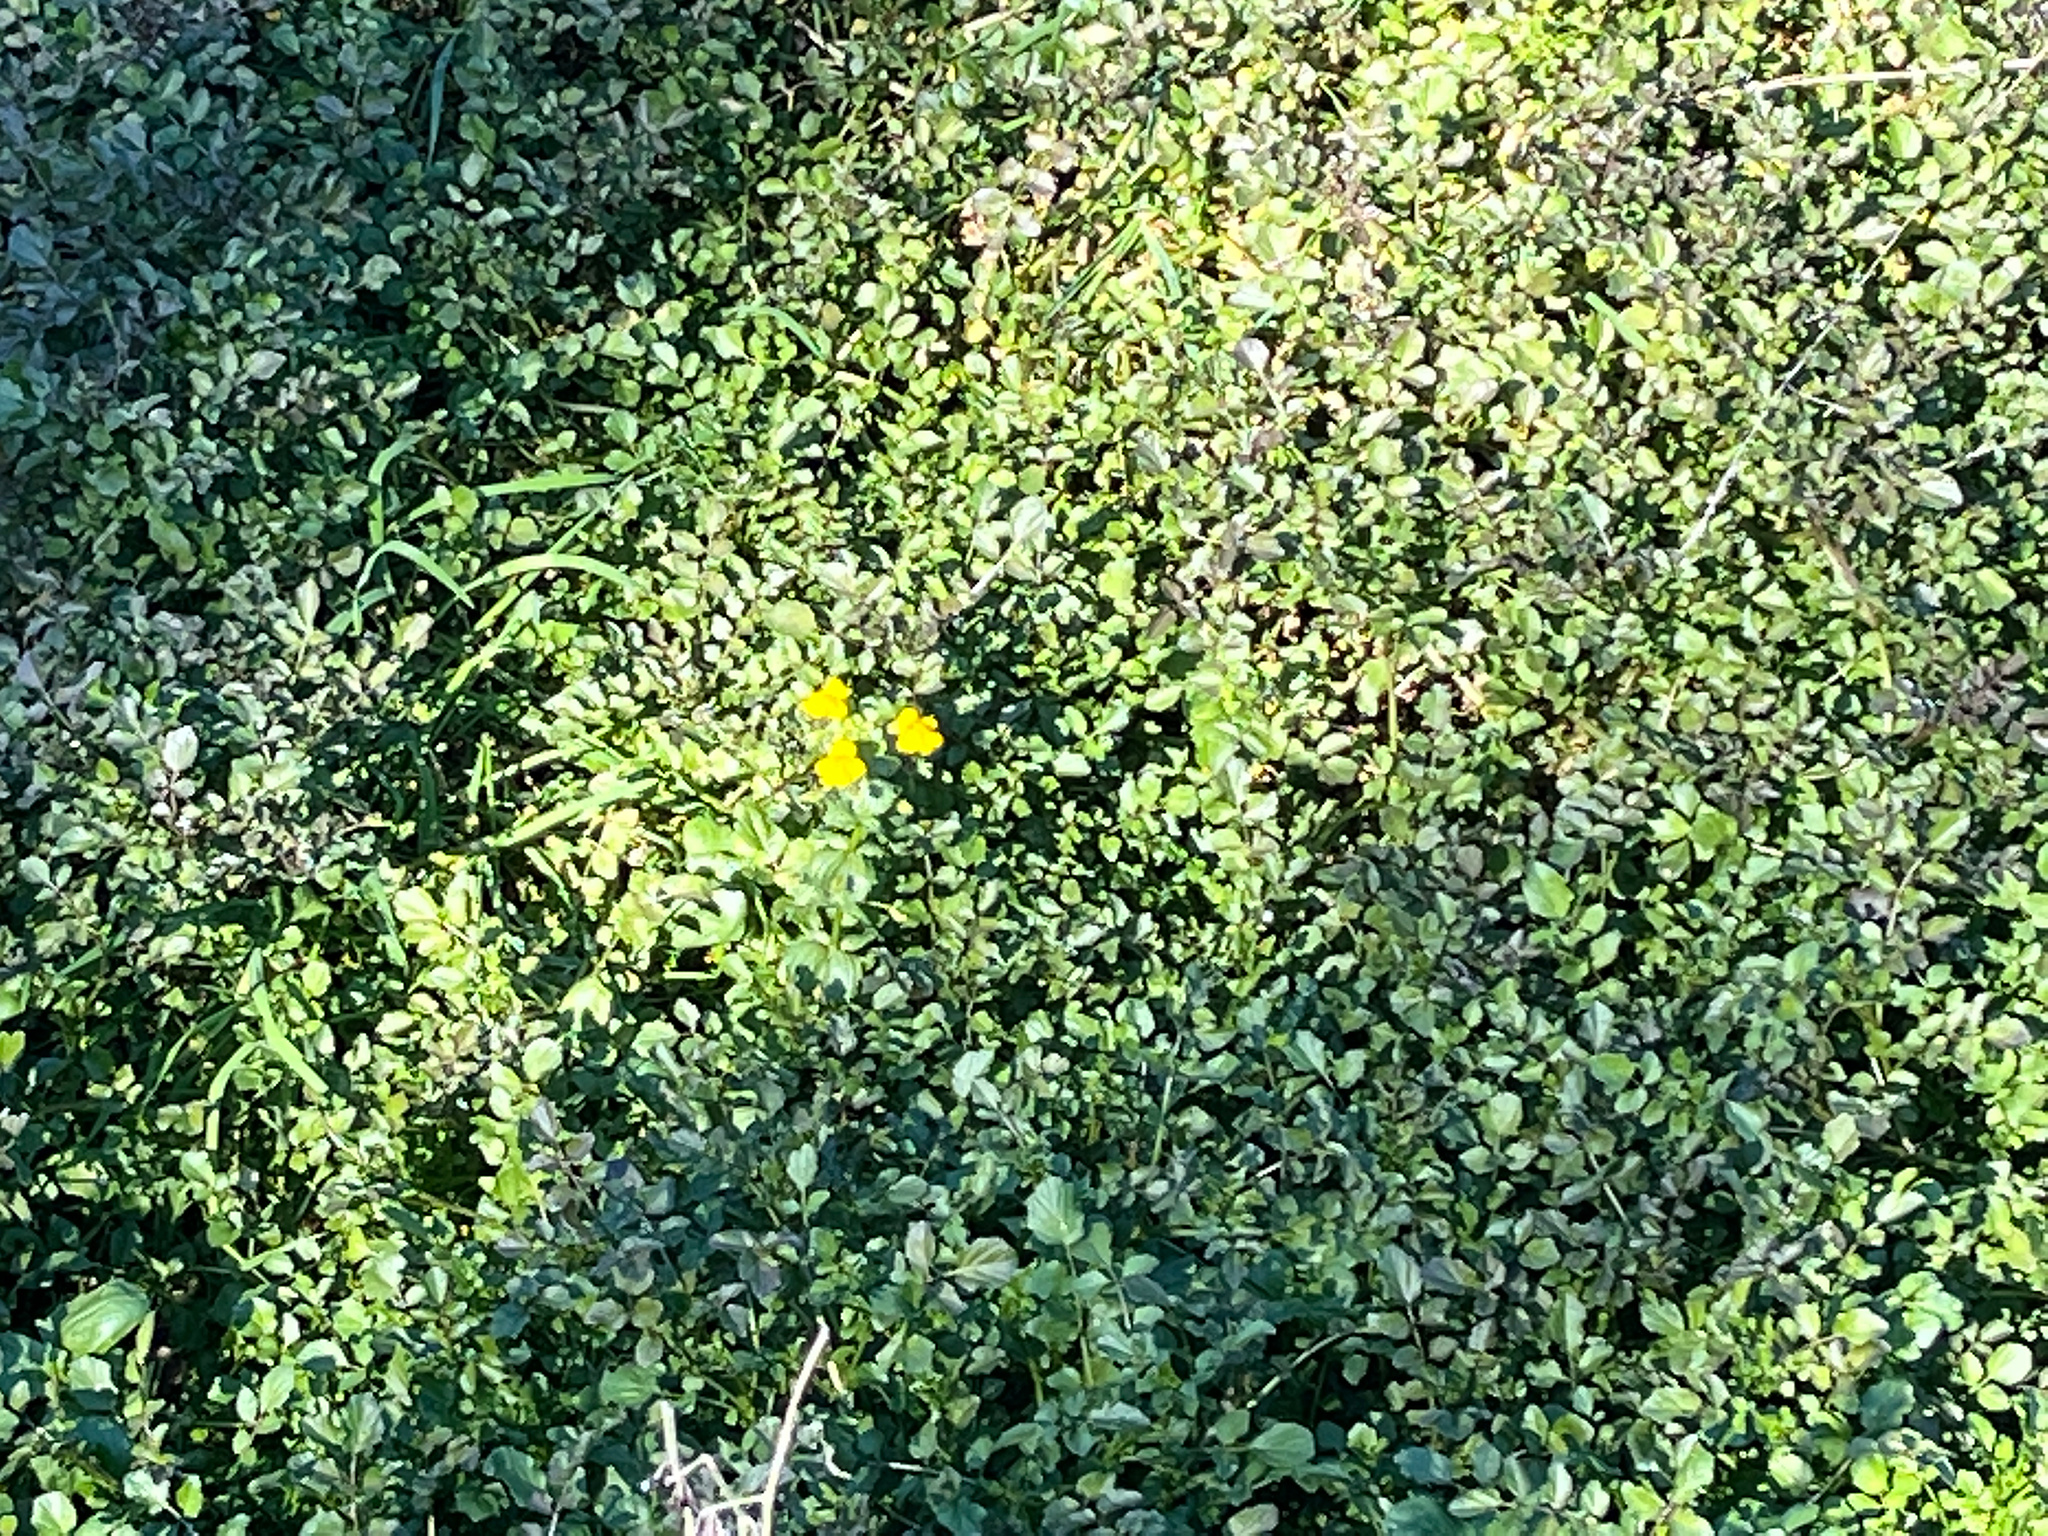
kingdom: Plantae
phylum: Tracheophyta
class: Magnoliopsida
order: Lamiales
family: Phrymaceae
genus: Erythranthe
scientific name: Erythranthe guttata
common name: Monkeyflower
